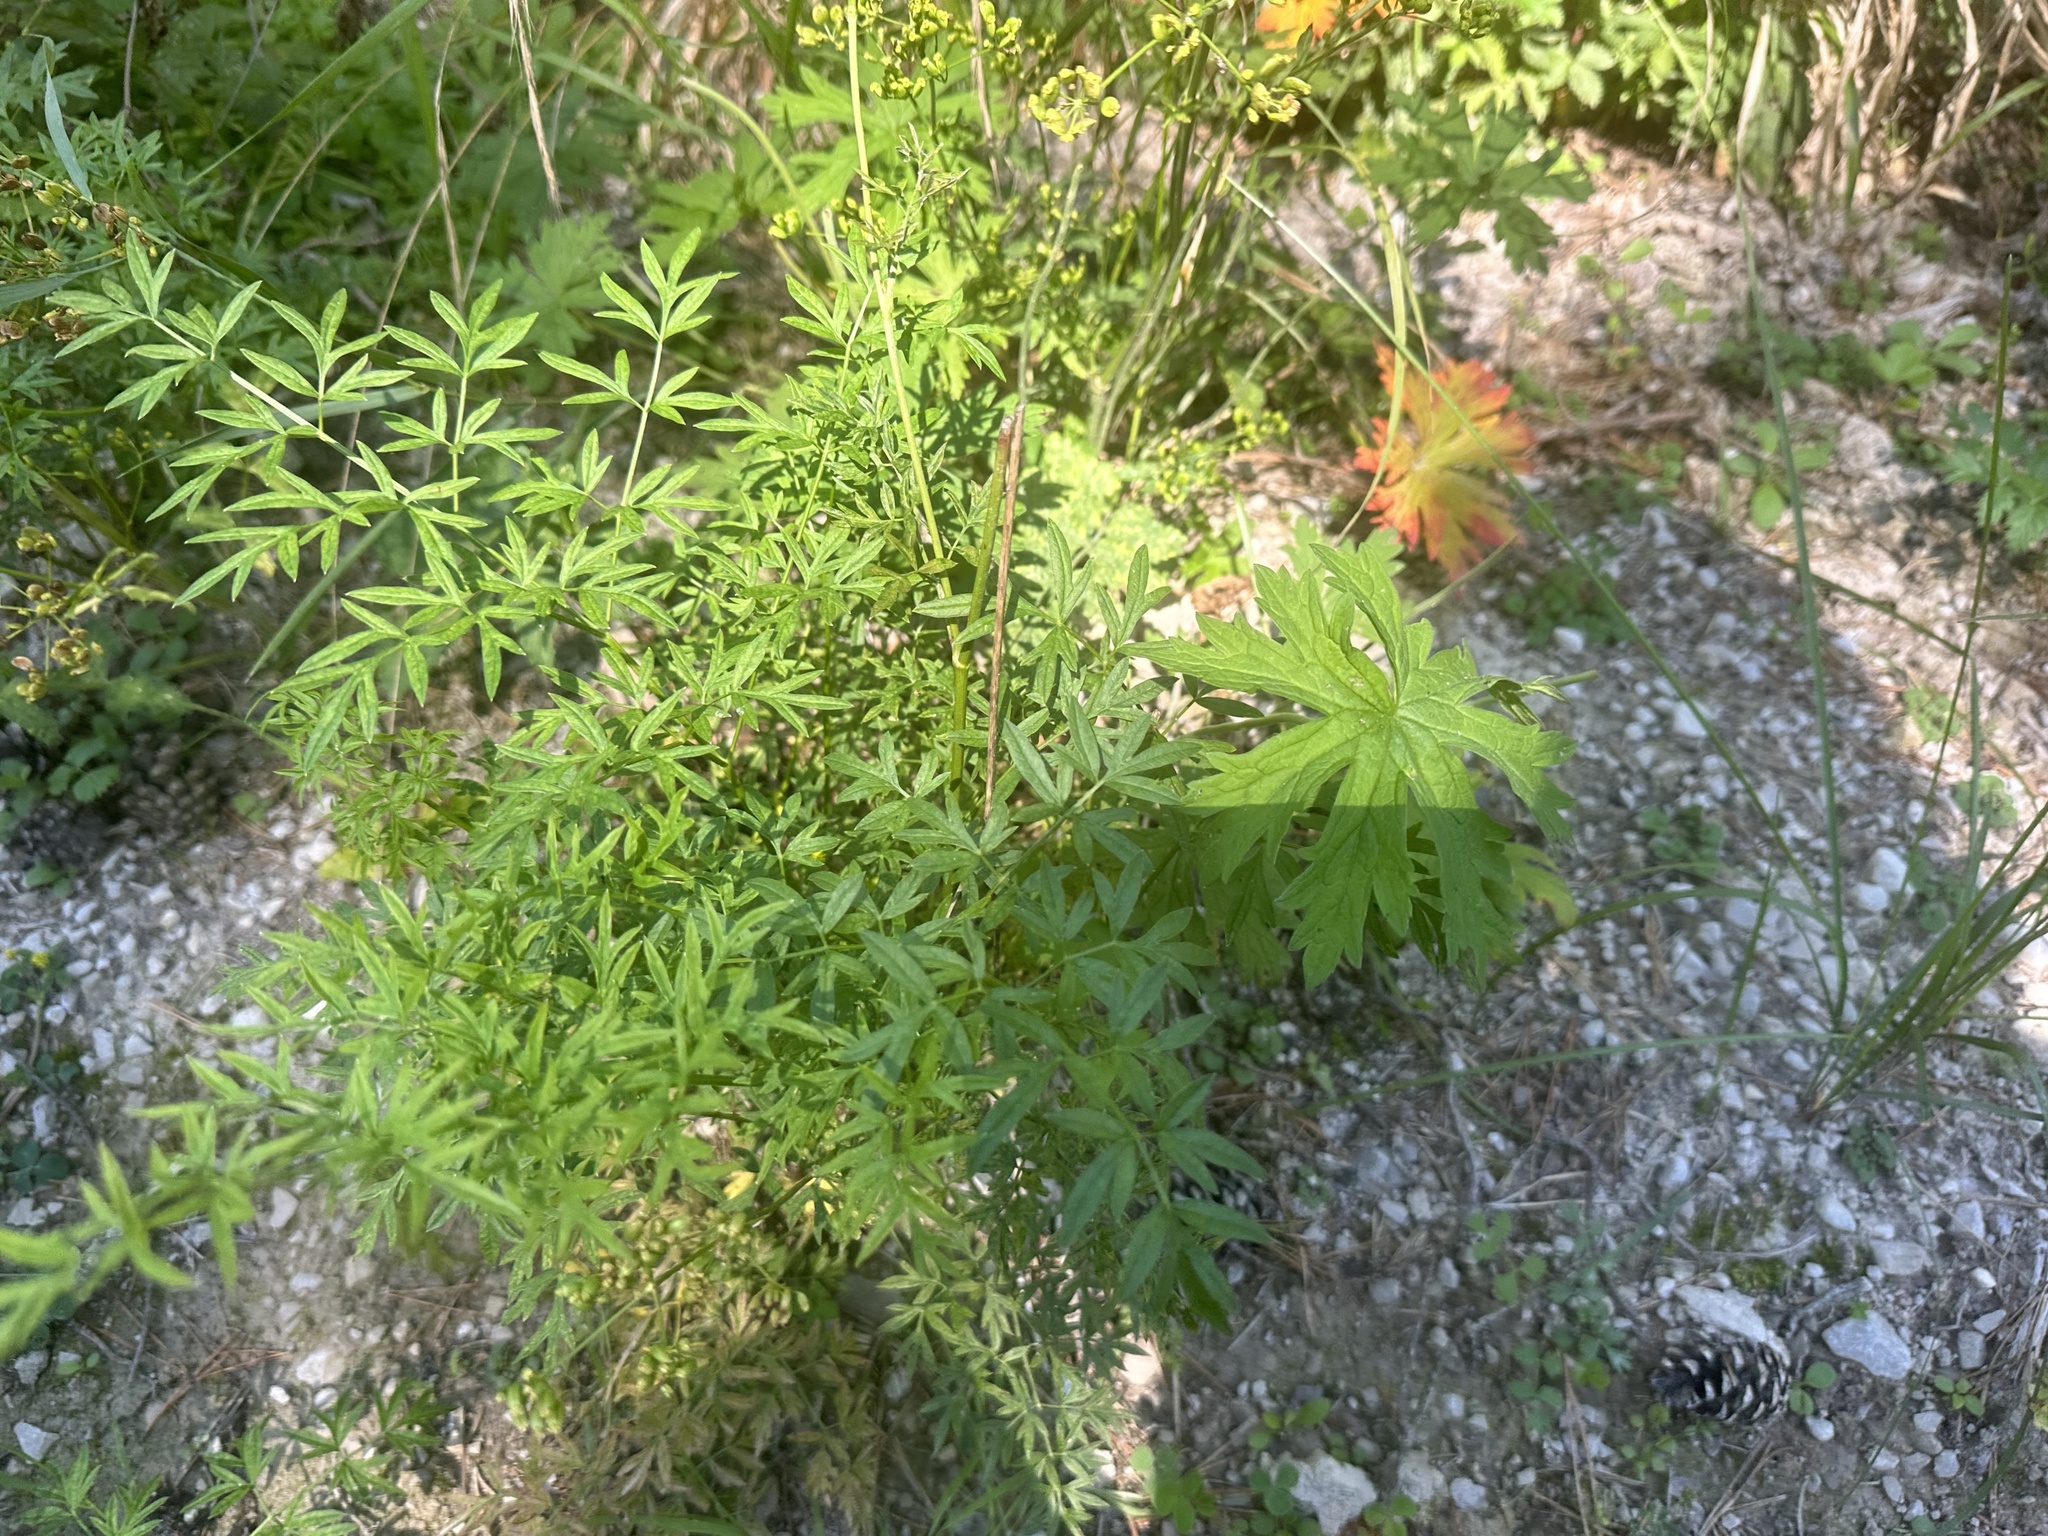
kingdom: Plantae
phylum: Tracheophyta
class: Magnoliopsida
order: Apiales
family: Apiaceae
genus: Silaum
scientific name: Silaum silaus
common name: Pepper-saxifrage
